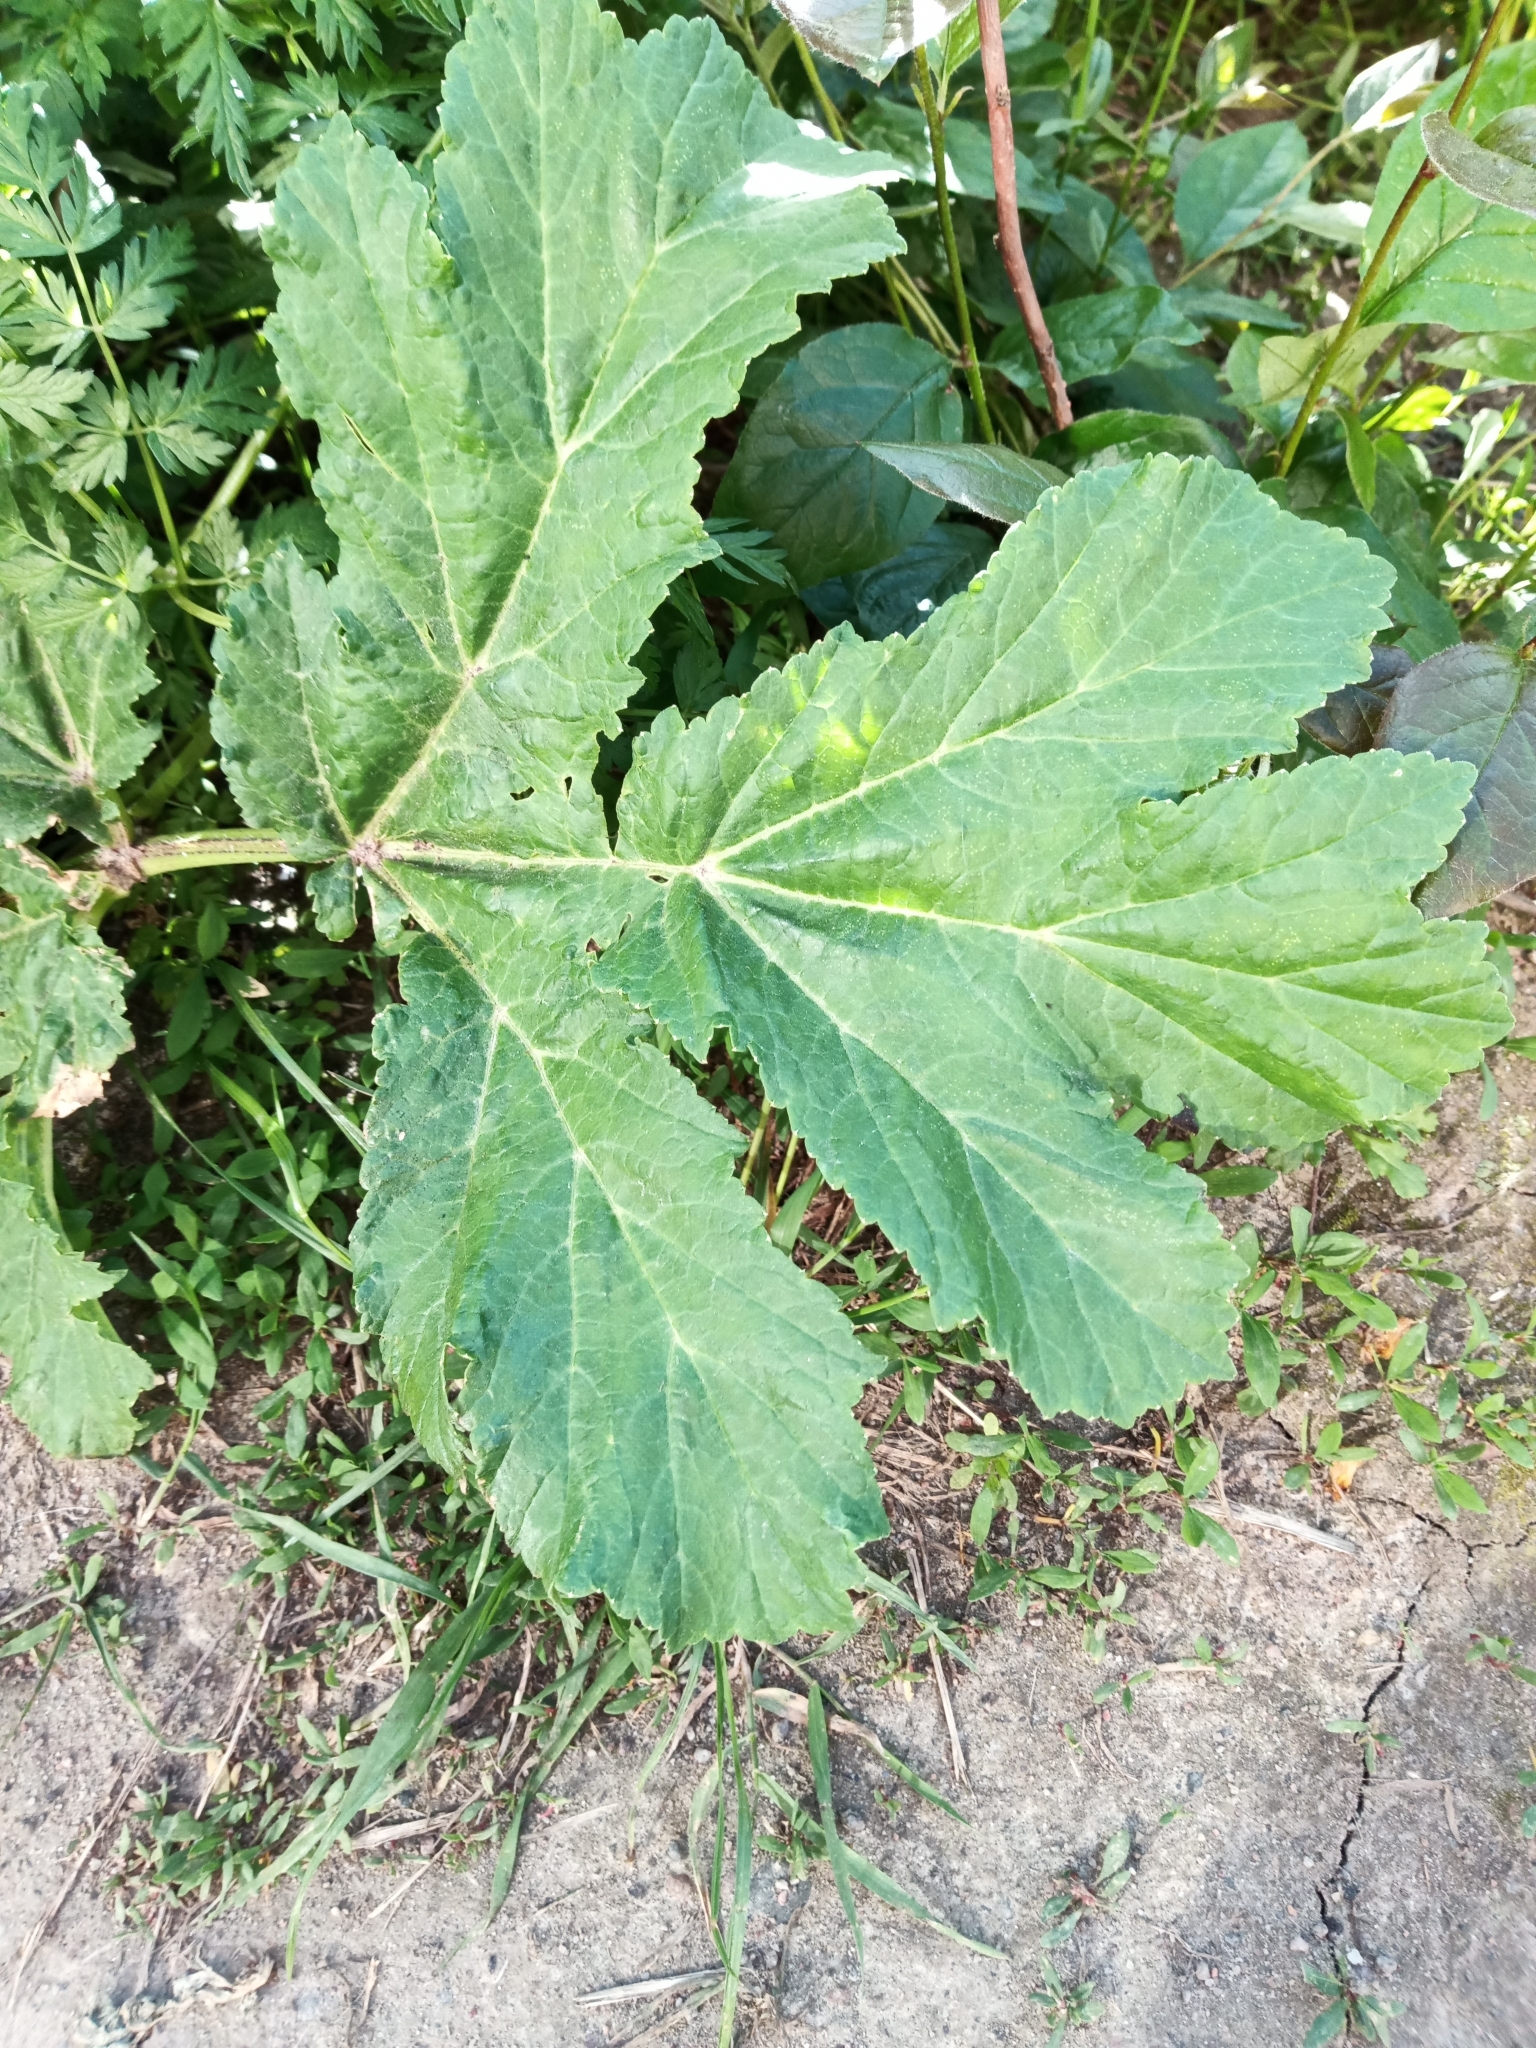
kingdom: Plantae
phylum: Tracheophyta
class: Magnoliopsida
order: Apiales
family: Apiaceae
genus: Heracleum
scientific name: Heracleum sosnowskyi
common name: Sosnowsky's hogweed
